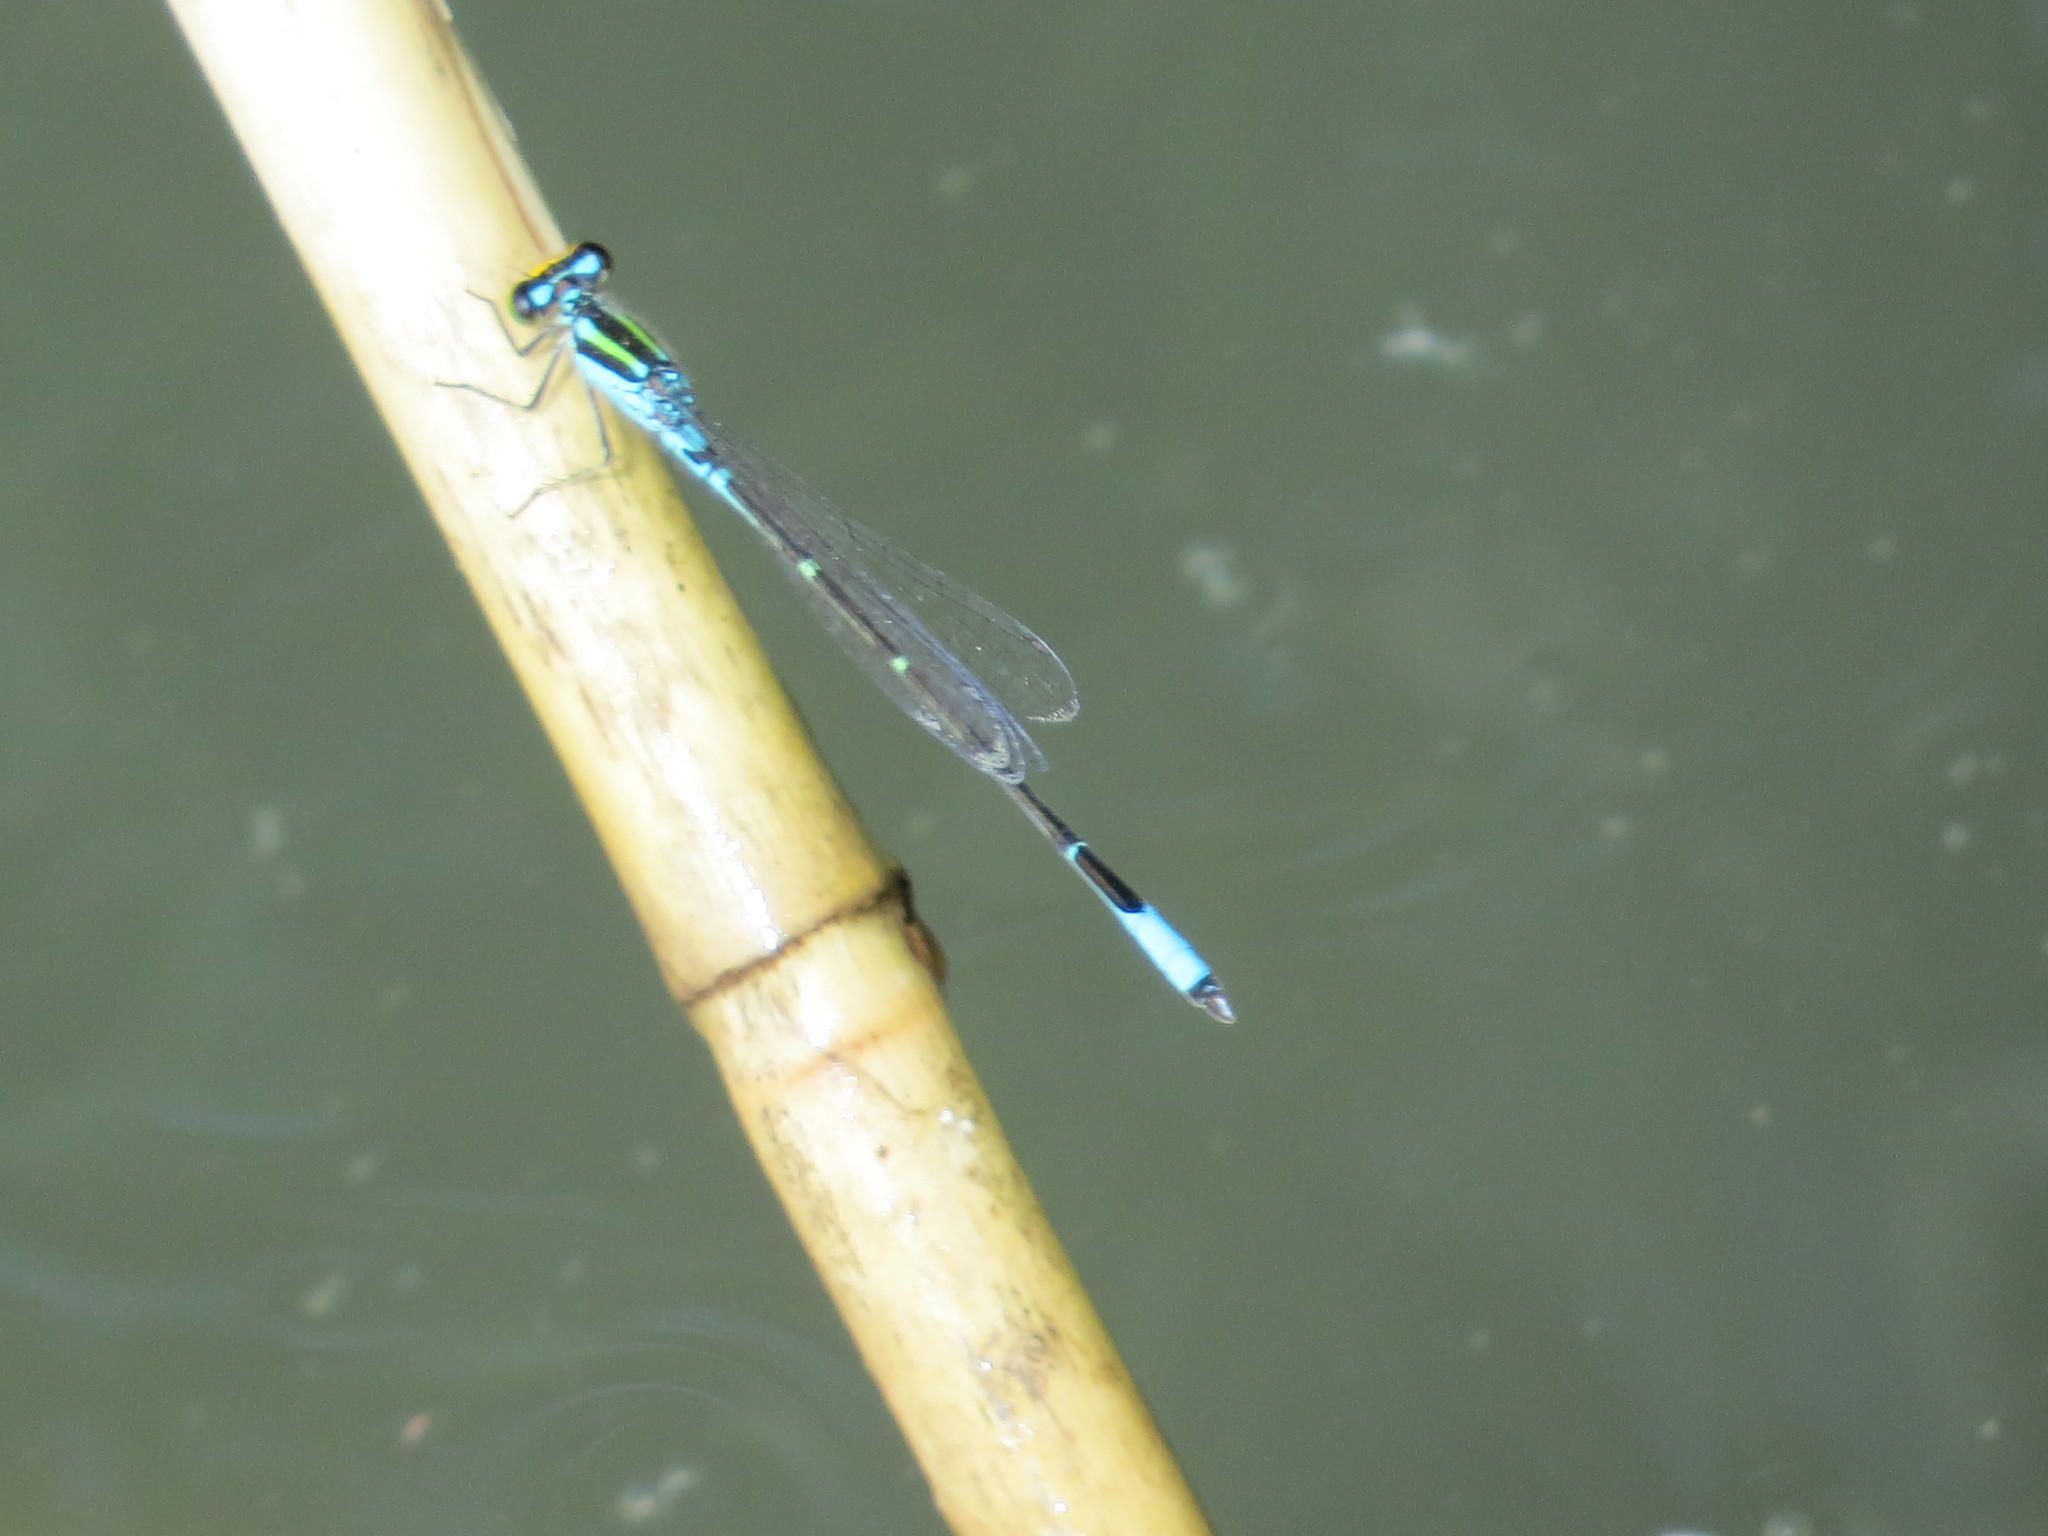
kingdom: Animalia
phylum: Arthropoda
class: Insecta
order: Odonata
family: Coenagrionidae
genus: Neoerythromma
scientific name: Neoerythromma cultellatum
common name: Caribbean yellowface
